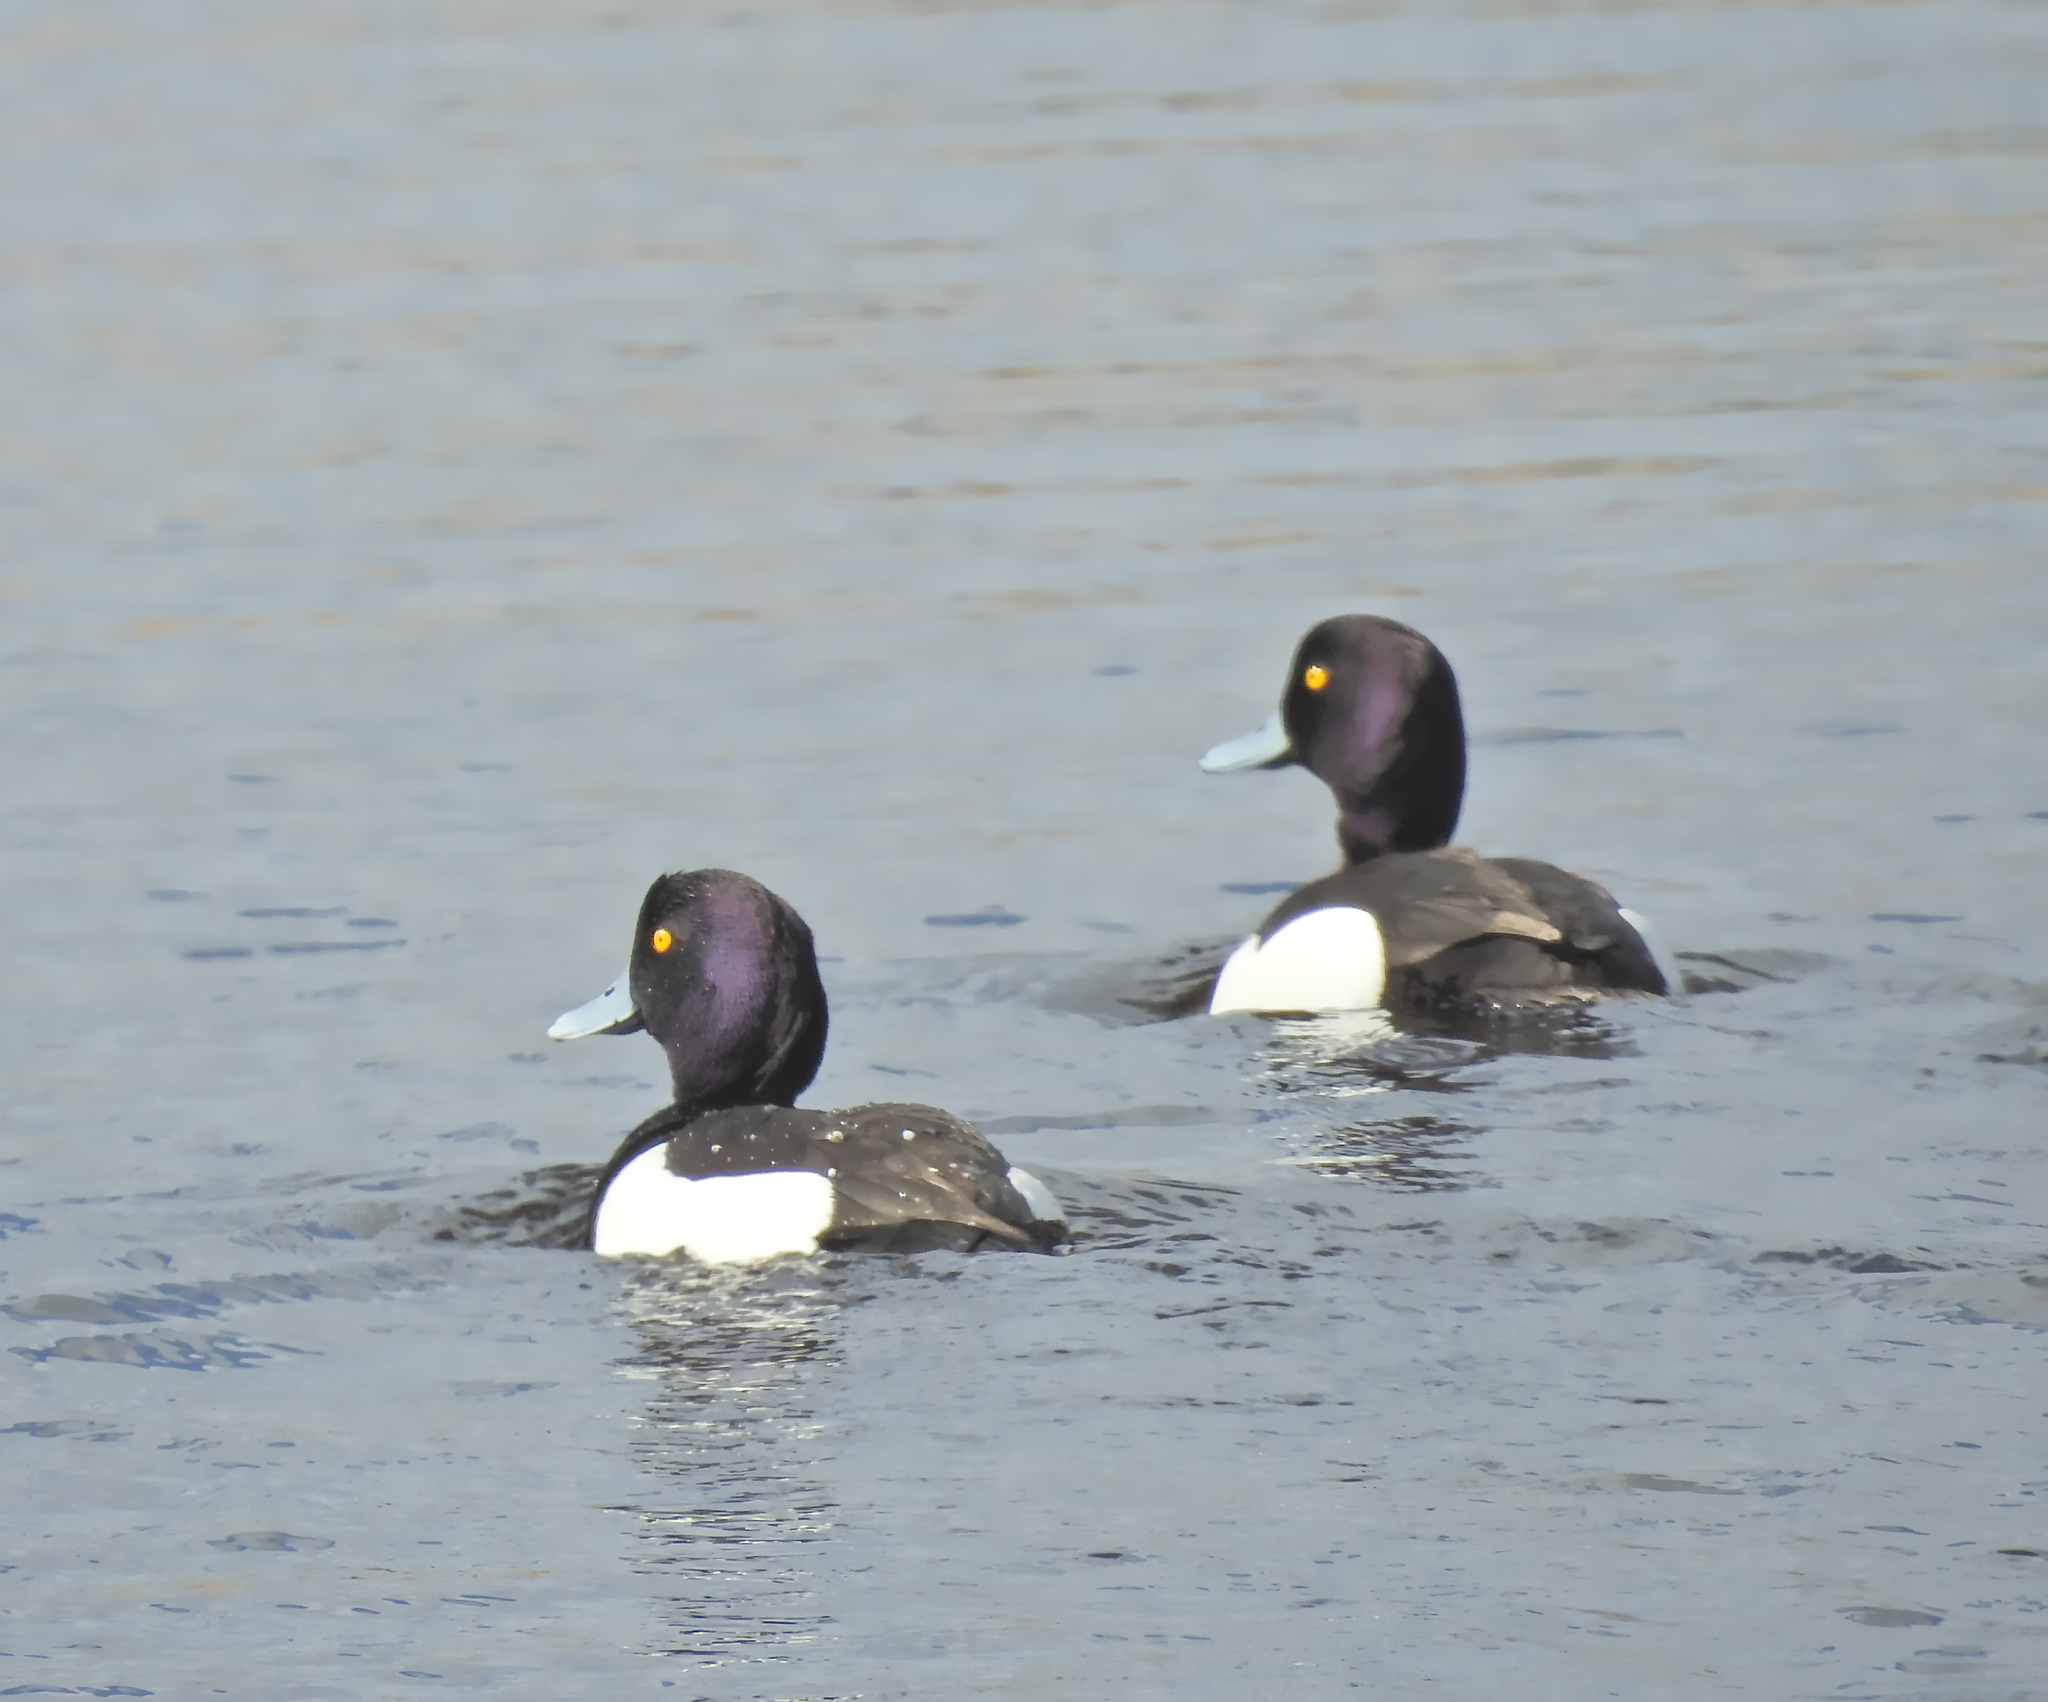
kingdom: Animalia
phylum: Chordata
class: Aves
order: Anseriformes
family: Anatidae
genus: Aythya
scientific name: Aythya fuligula
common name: Tufted duck
